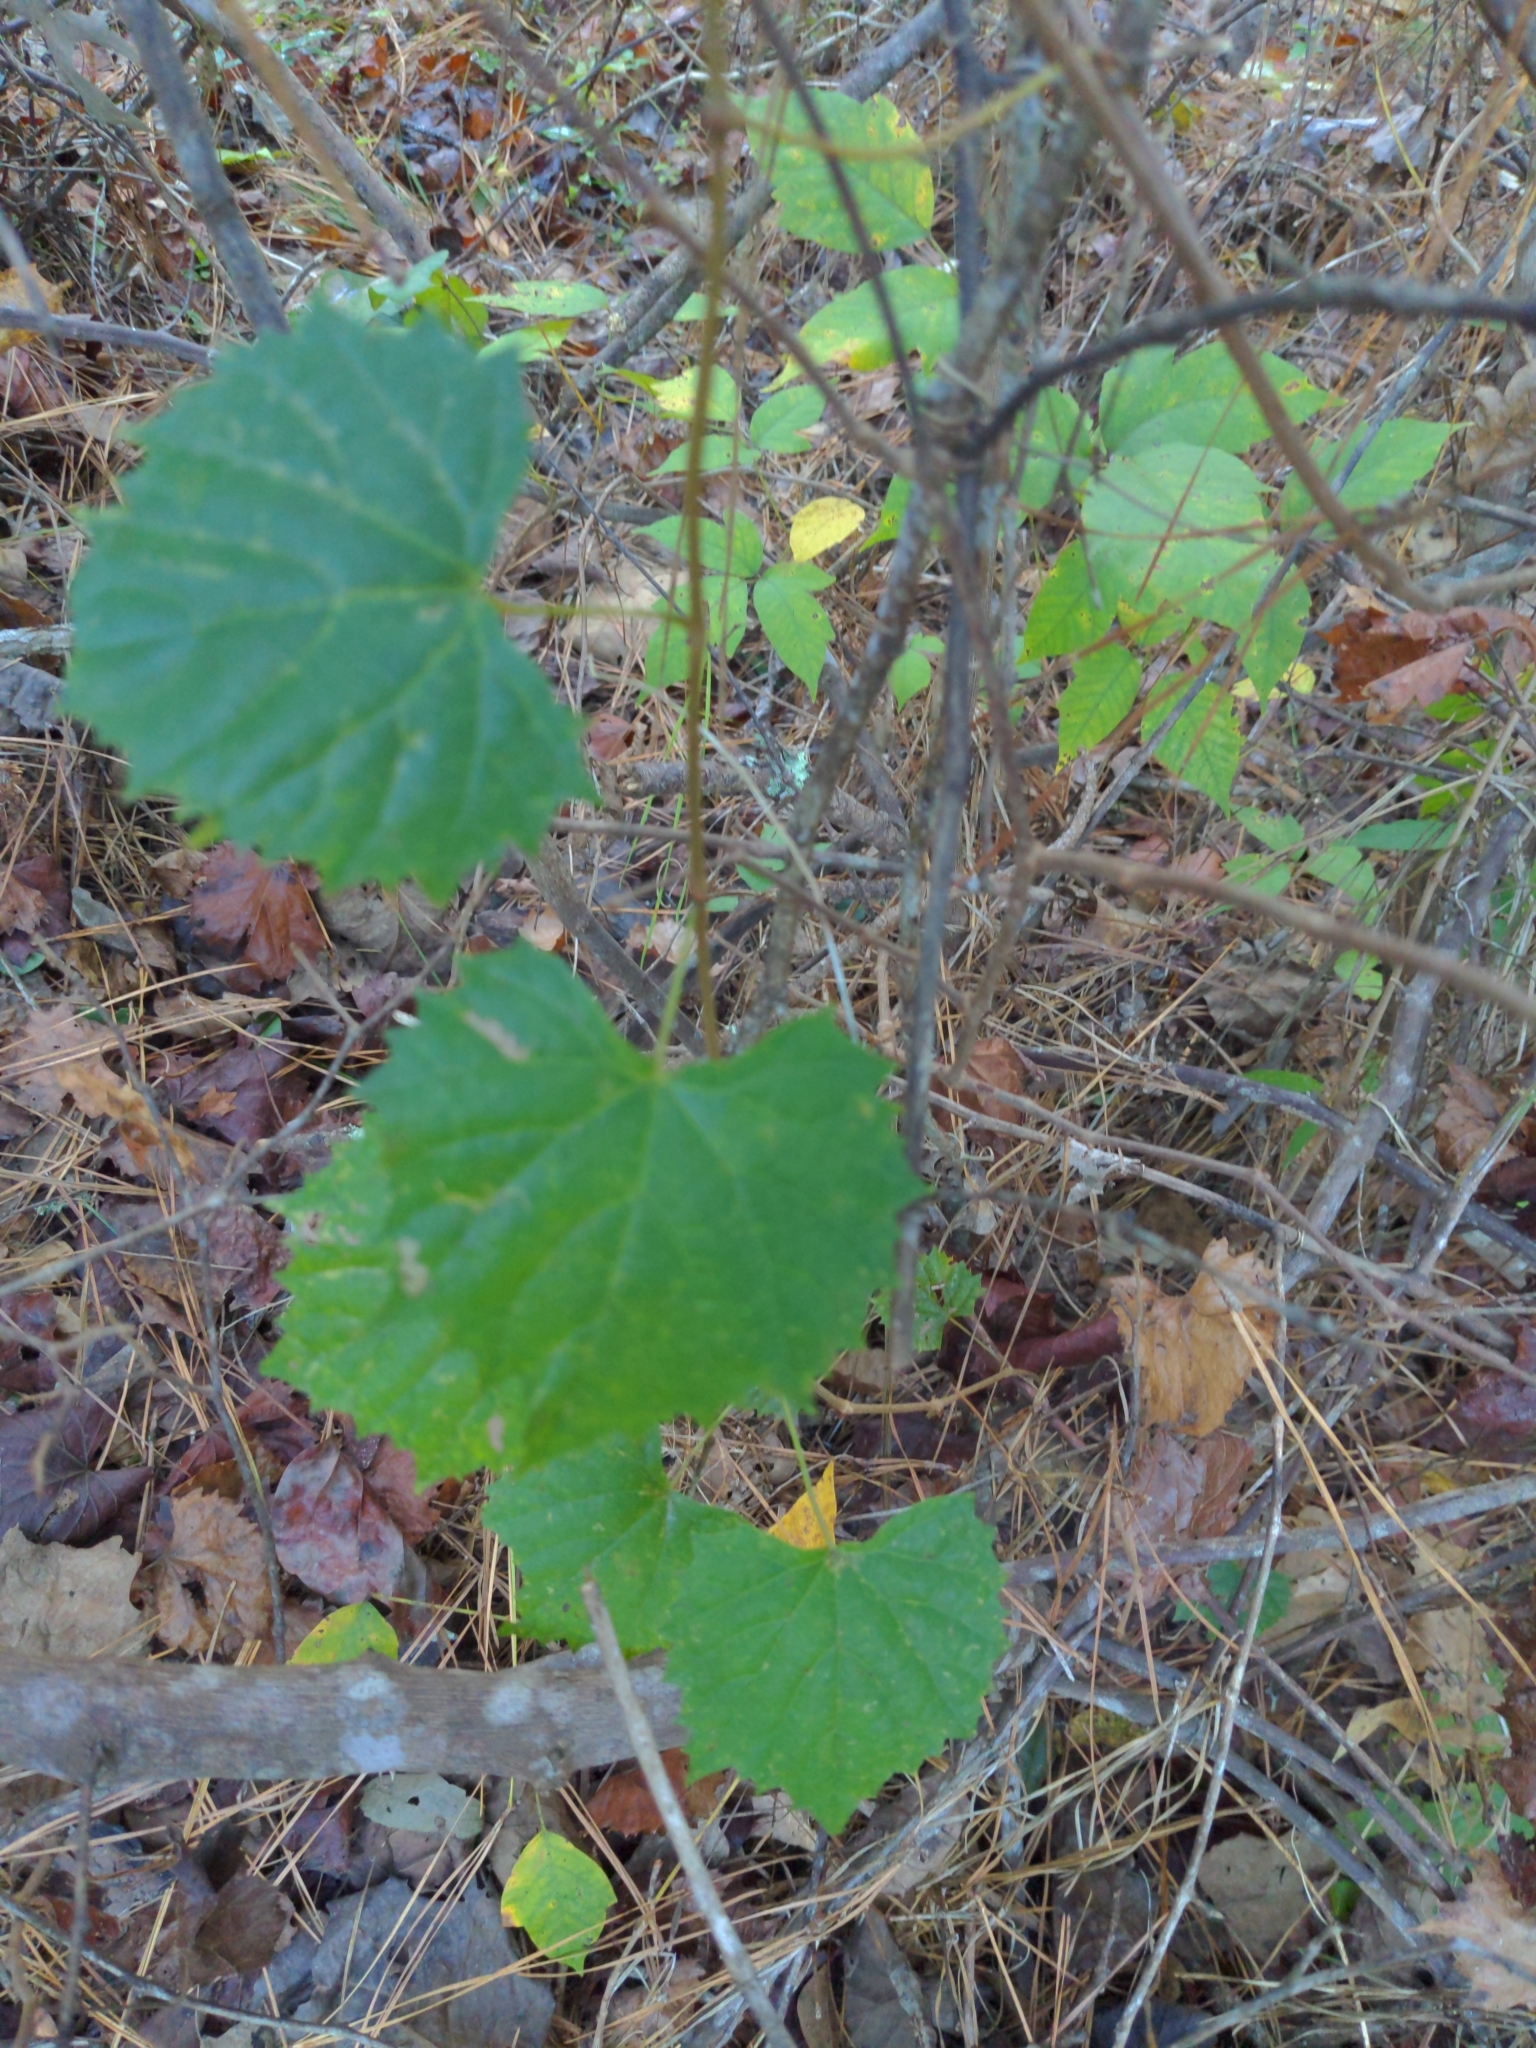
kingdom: Plantae
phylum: Tracheophyta
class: Magnoliopsida
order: Vitales
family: Vitaceae
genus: Vitis
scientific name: Vitis rotundifolia
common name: Muscadine grape
